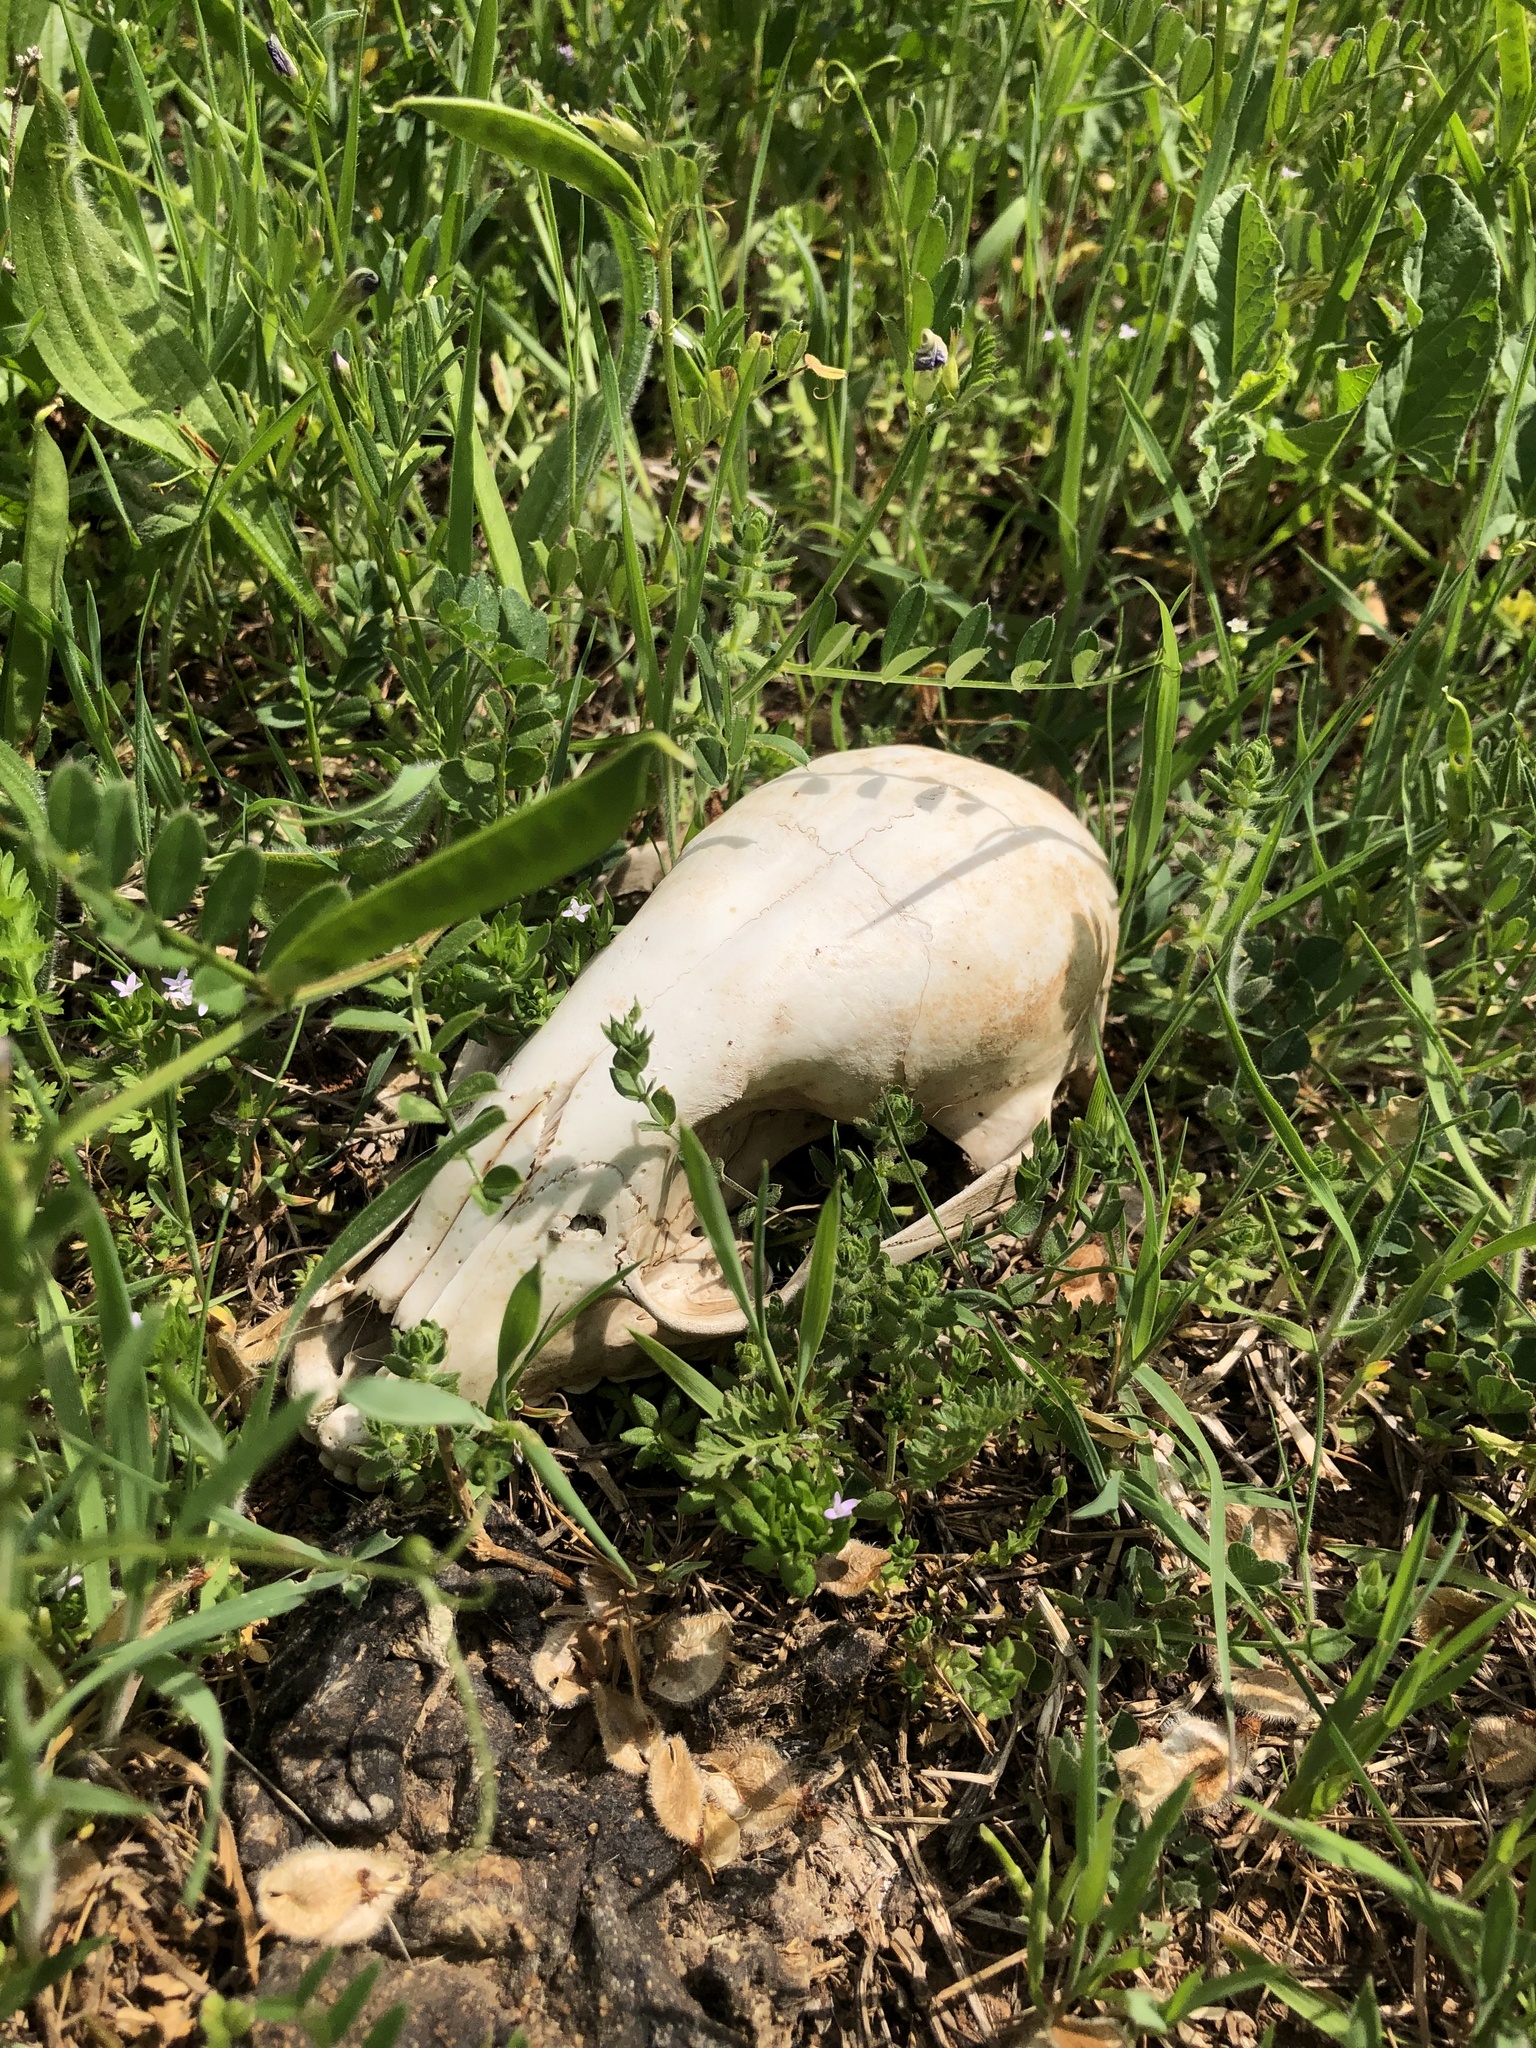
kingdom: Animalia
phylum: Chordata
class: Mammalia
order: Carnivora
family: Procyonidae
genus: Procyon
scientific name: Procyon lotor
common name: Raccoon
